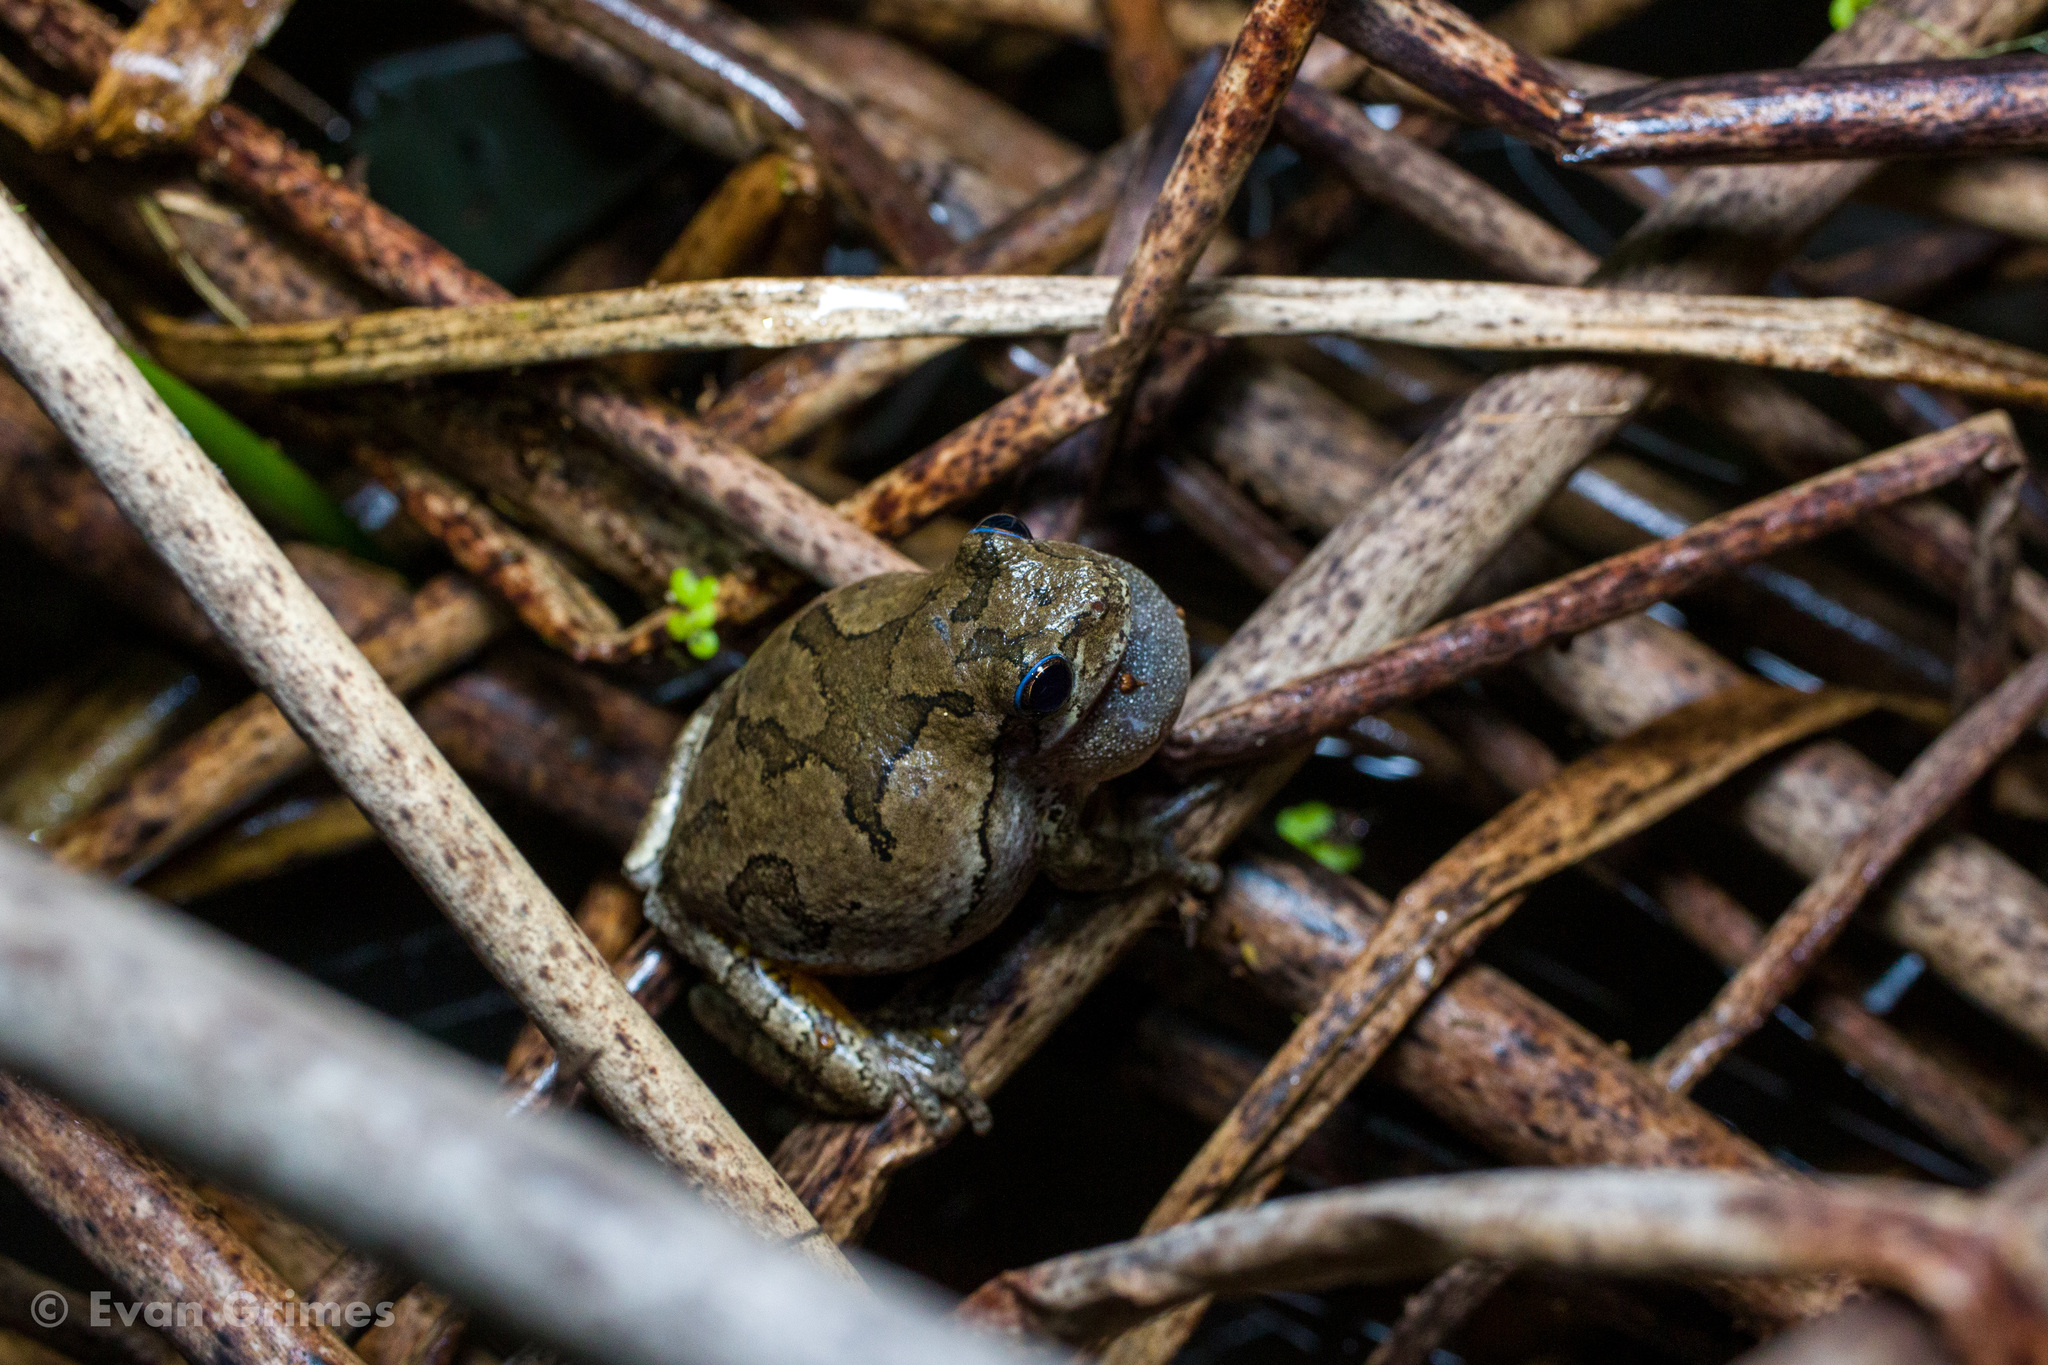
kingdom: Animalia
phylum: Chordata
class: Amphibia
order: Anura
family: Hylidae
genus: Dryophytes
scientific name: Dryophytes versicolor
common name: Gray treefrog
